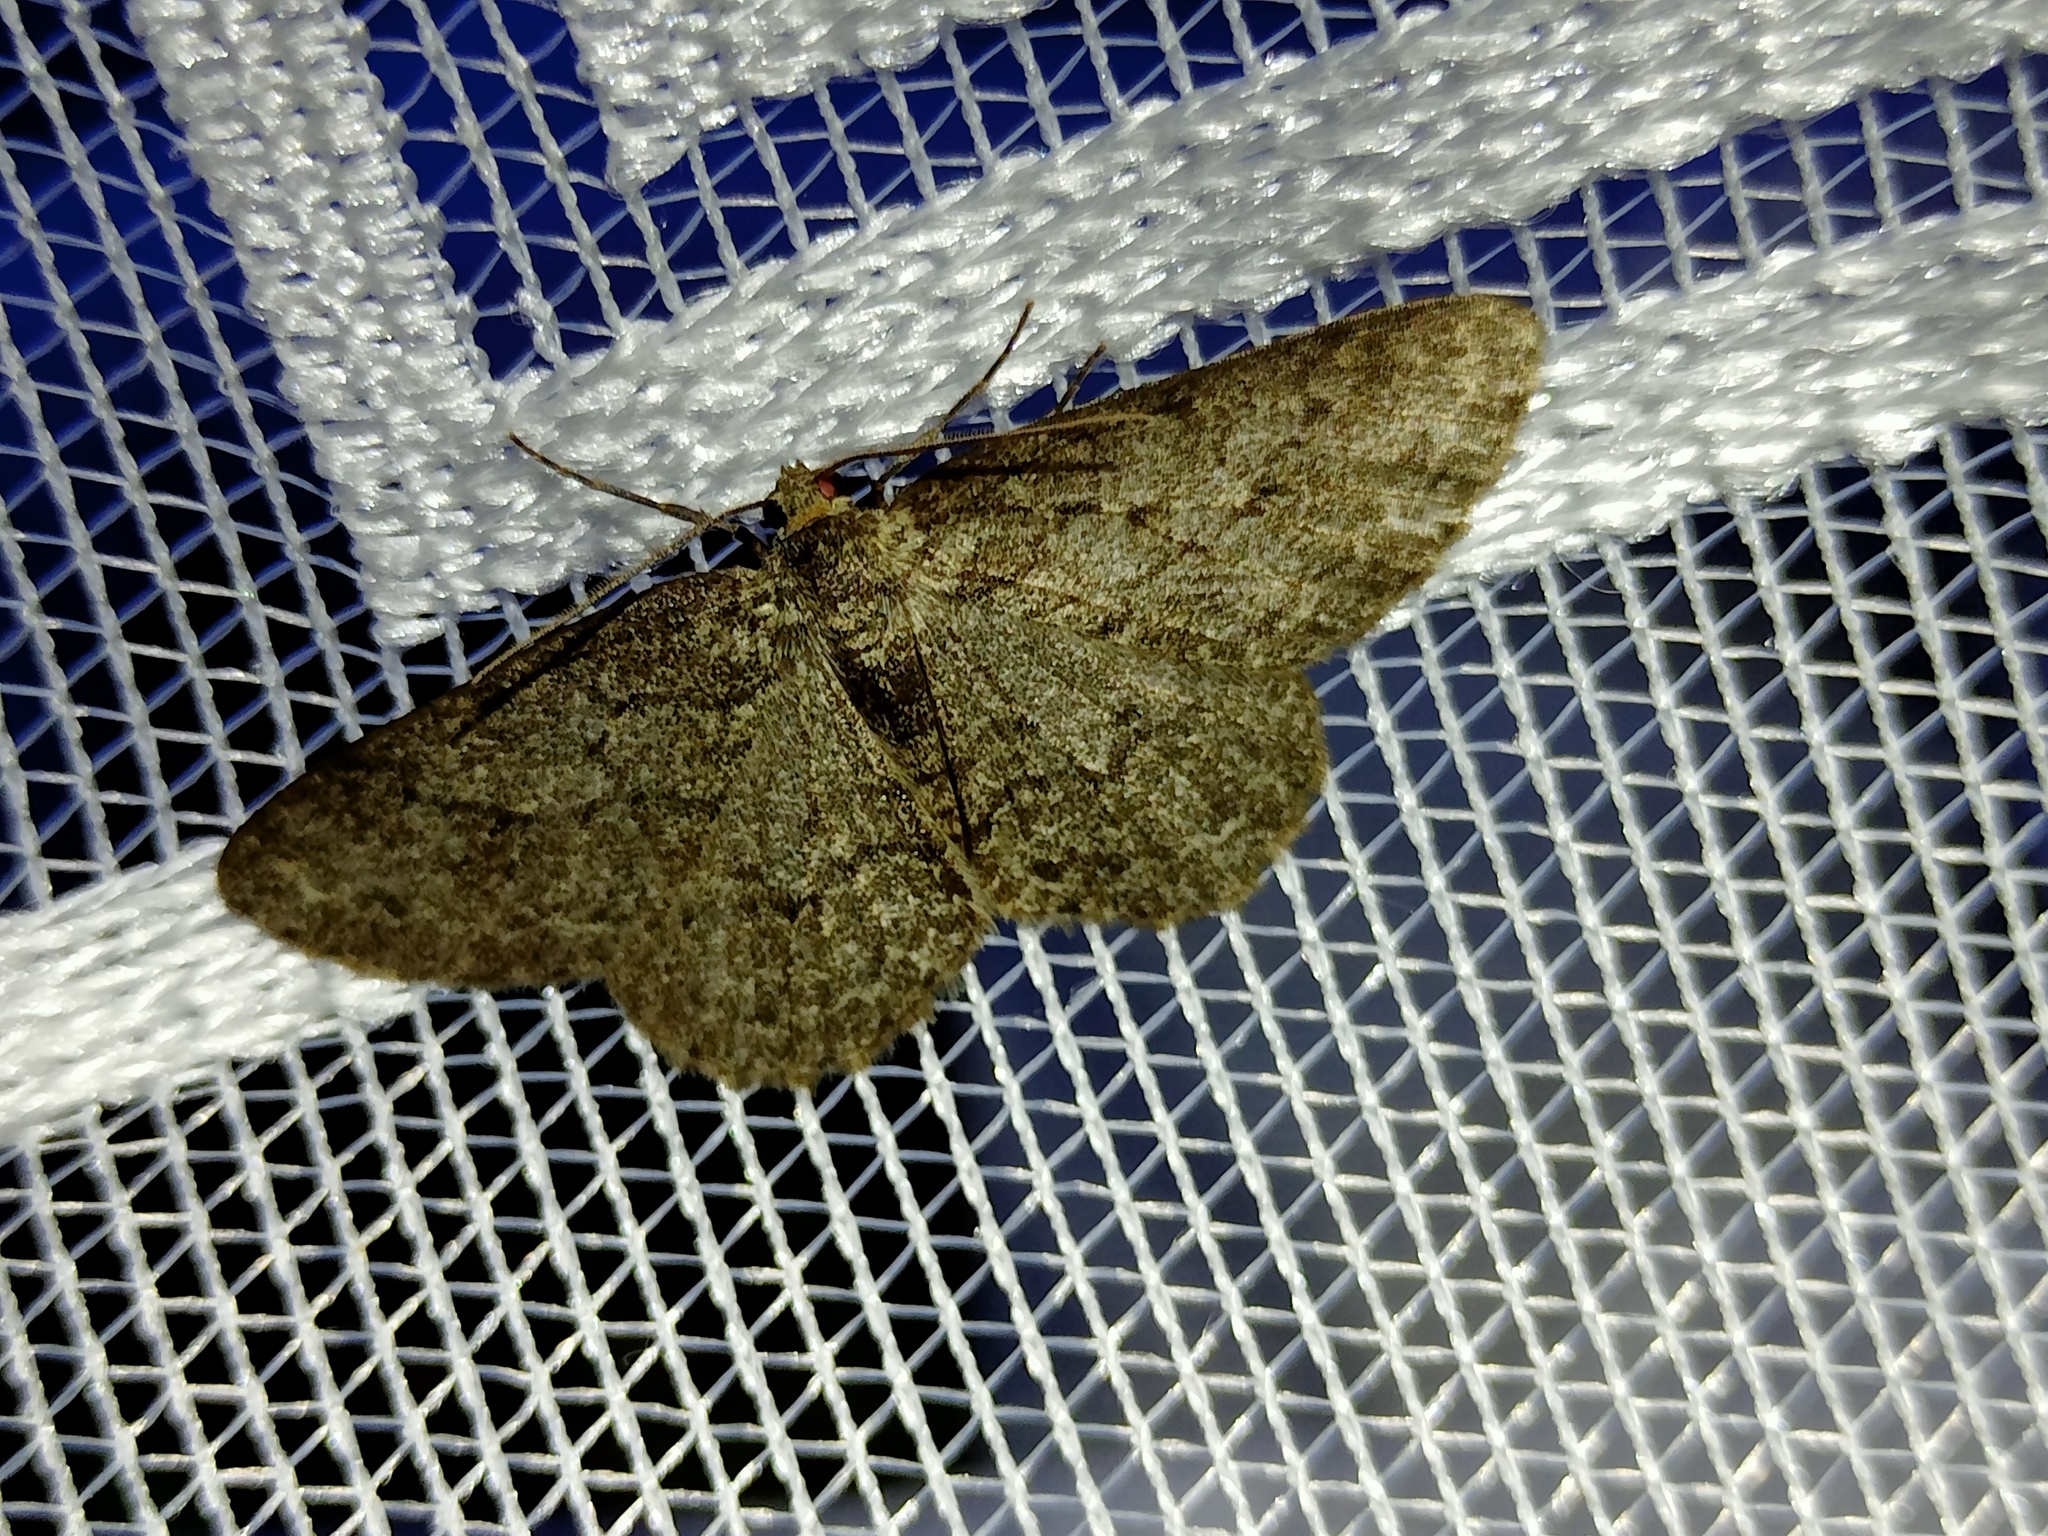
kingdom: Animalia
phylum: Arthropoda
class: Insecta
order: Lepidoptera
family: Geometridae
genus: Ectropis
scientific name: Ectropis crepuscularia
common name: Engrailed
